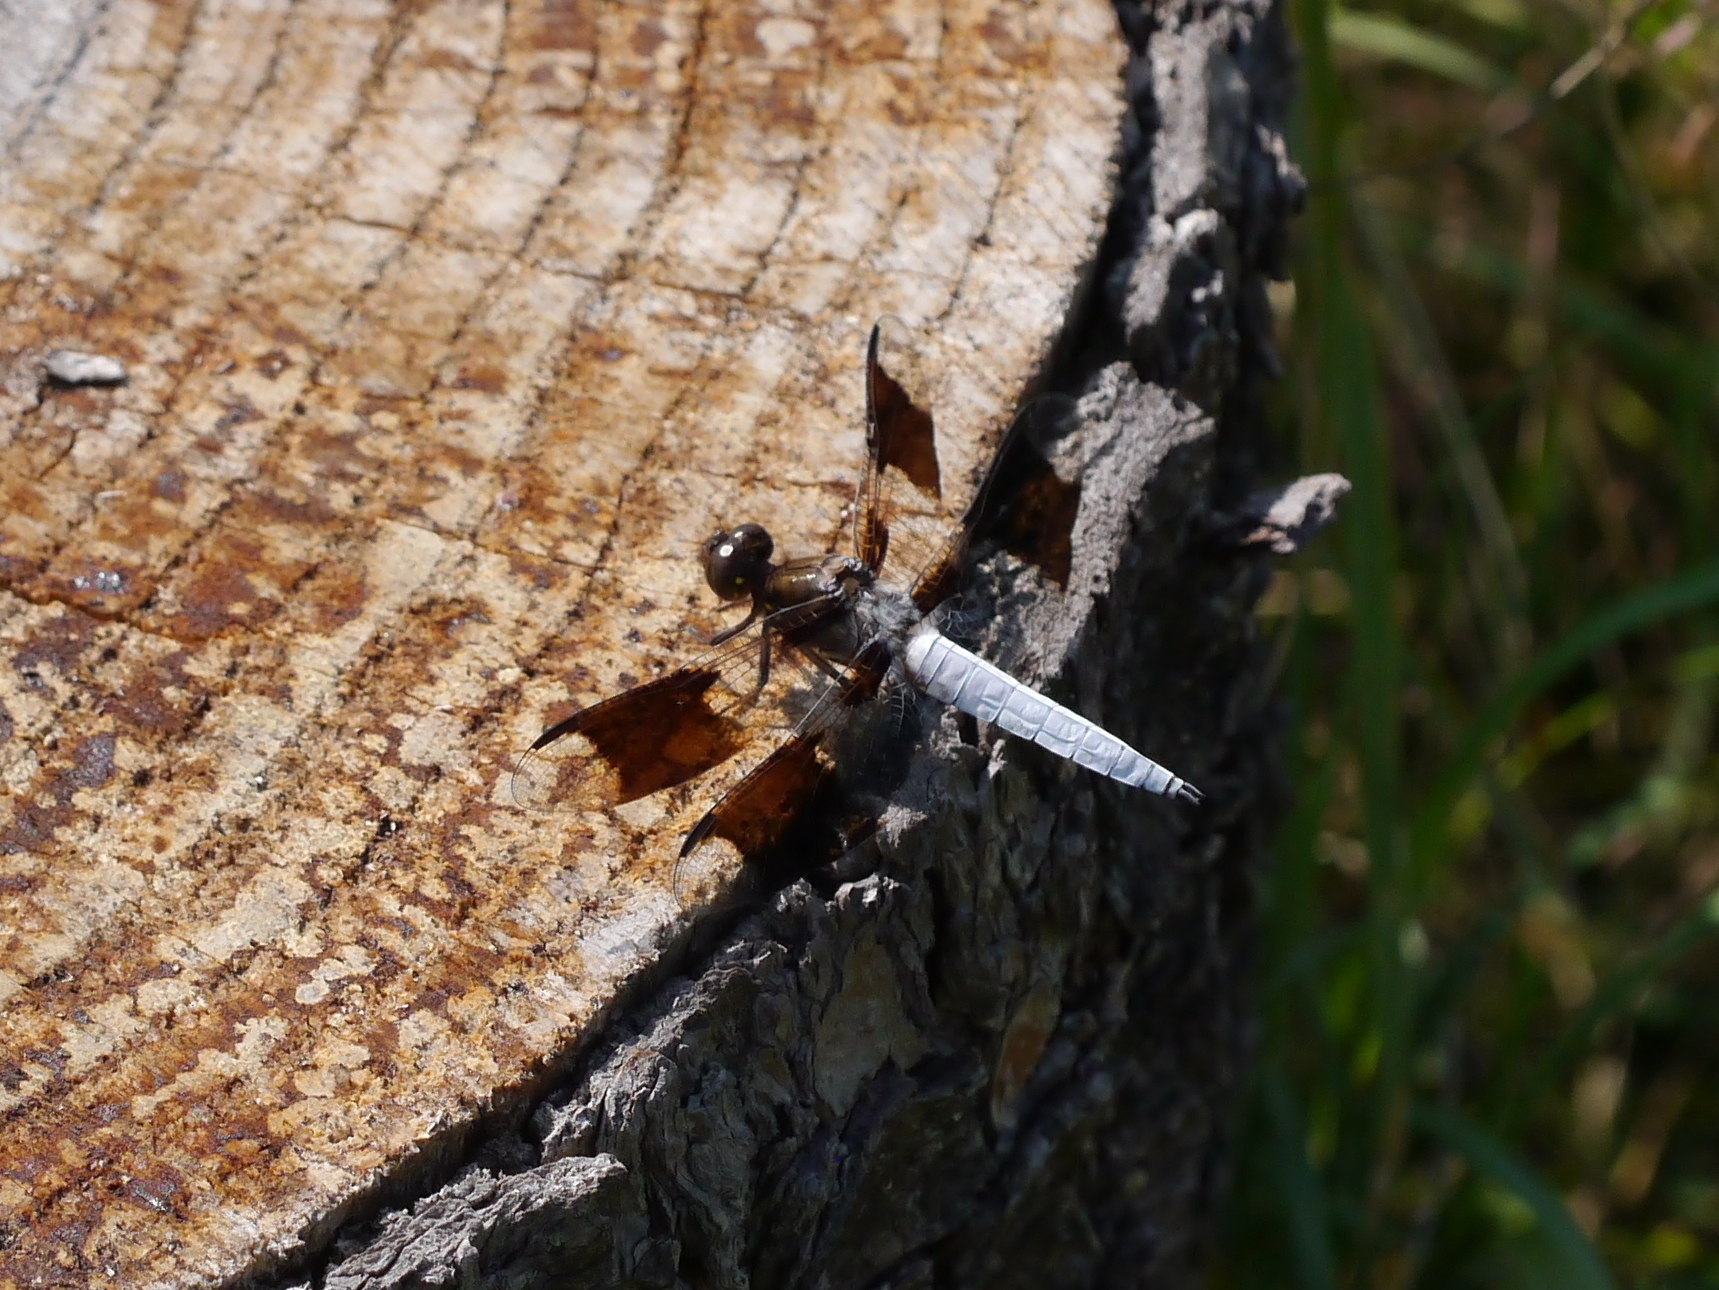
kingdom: Animalia
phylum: Arthropoda
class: Insecta
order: Odonata
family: Libellulidae
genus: Plathemis
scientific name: Plathemis lydia
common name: Common whitetail
